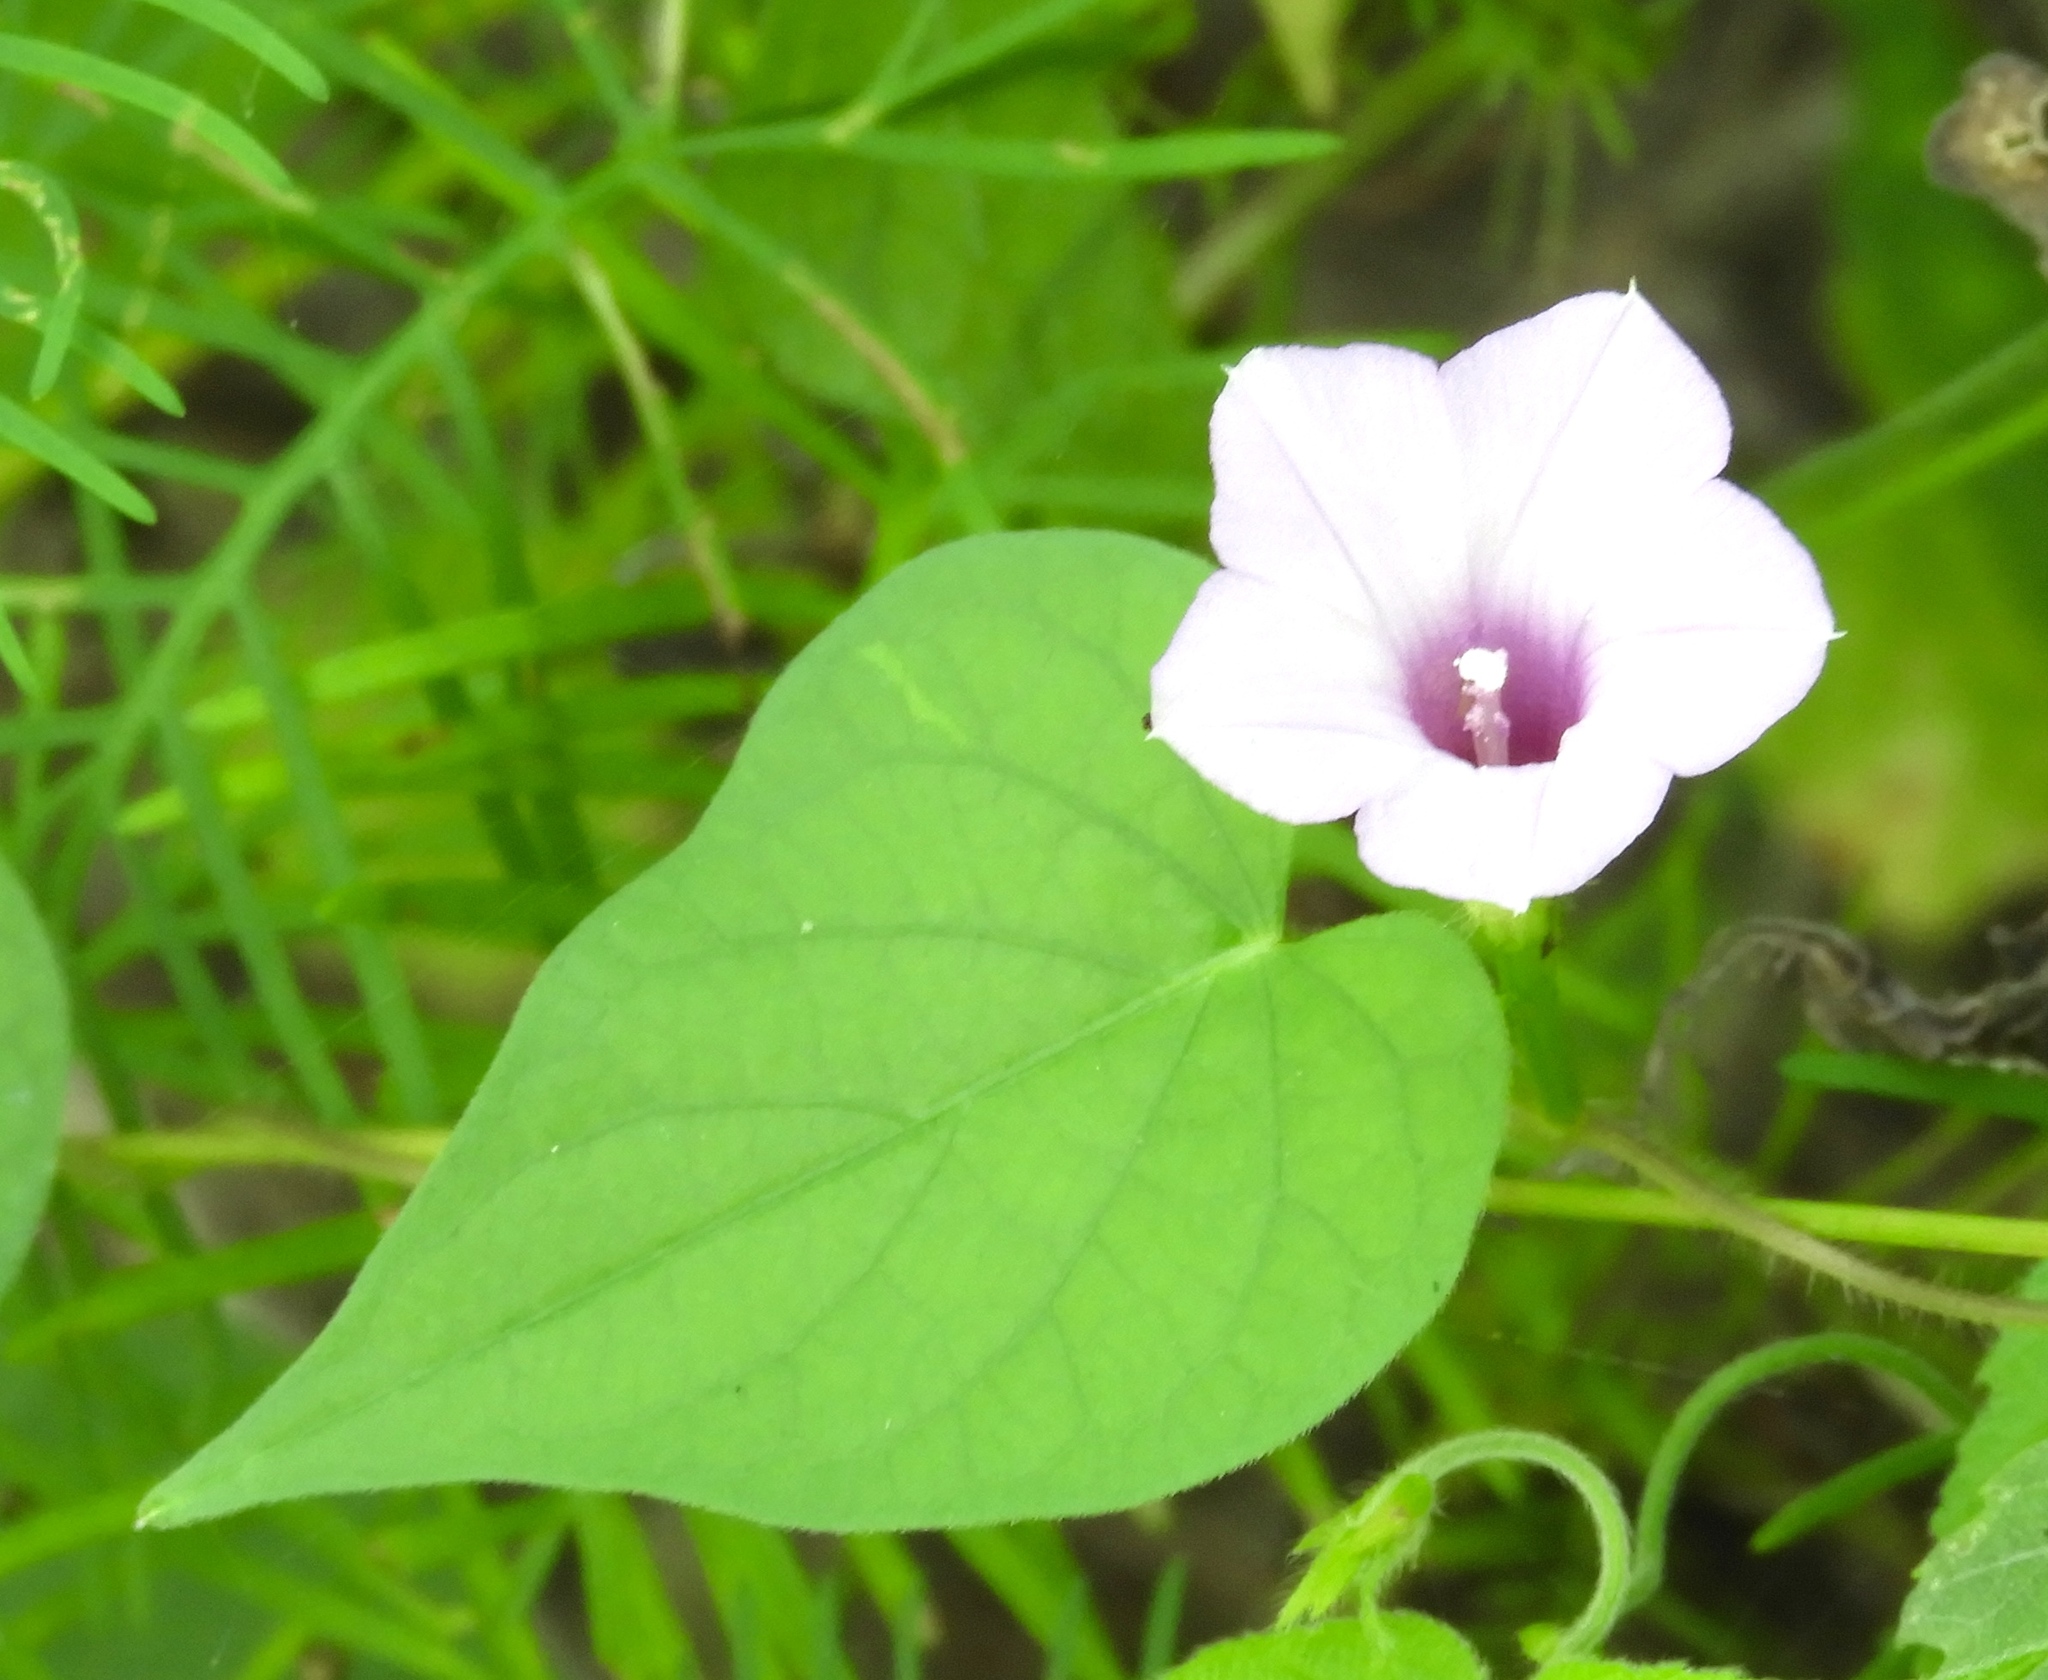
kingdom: Plantae
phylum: Tracheophyta
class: Magnoliopsida
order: Solanales
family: Convolvulaceae
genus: Ipomoea
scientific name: Ipomoea triloba
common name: Little-bell
